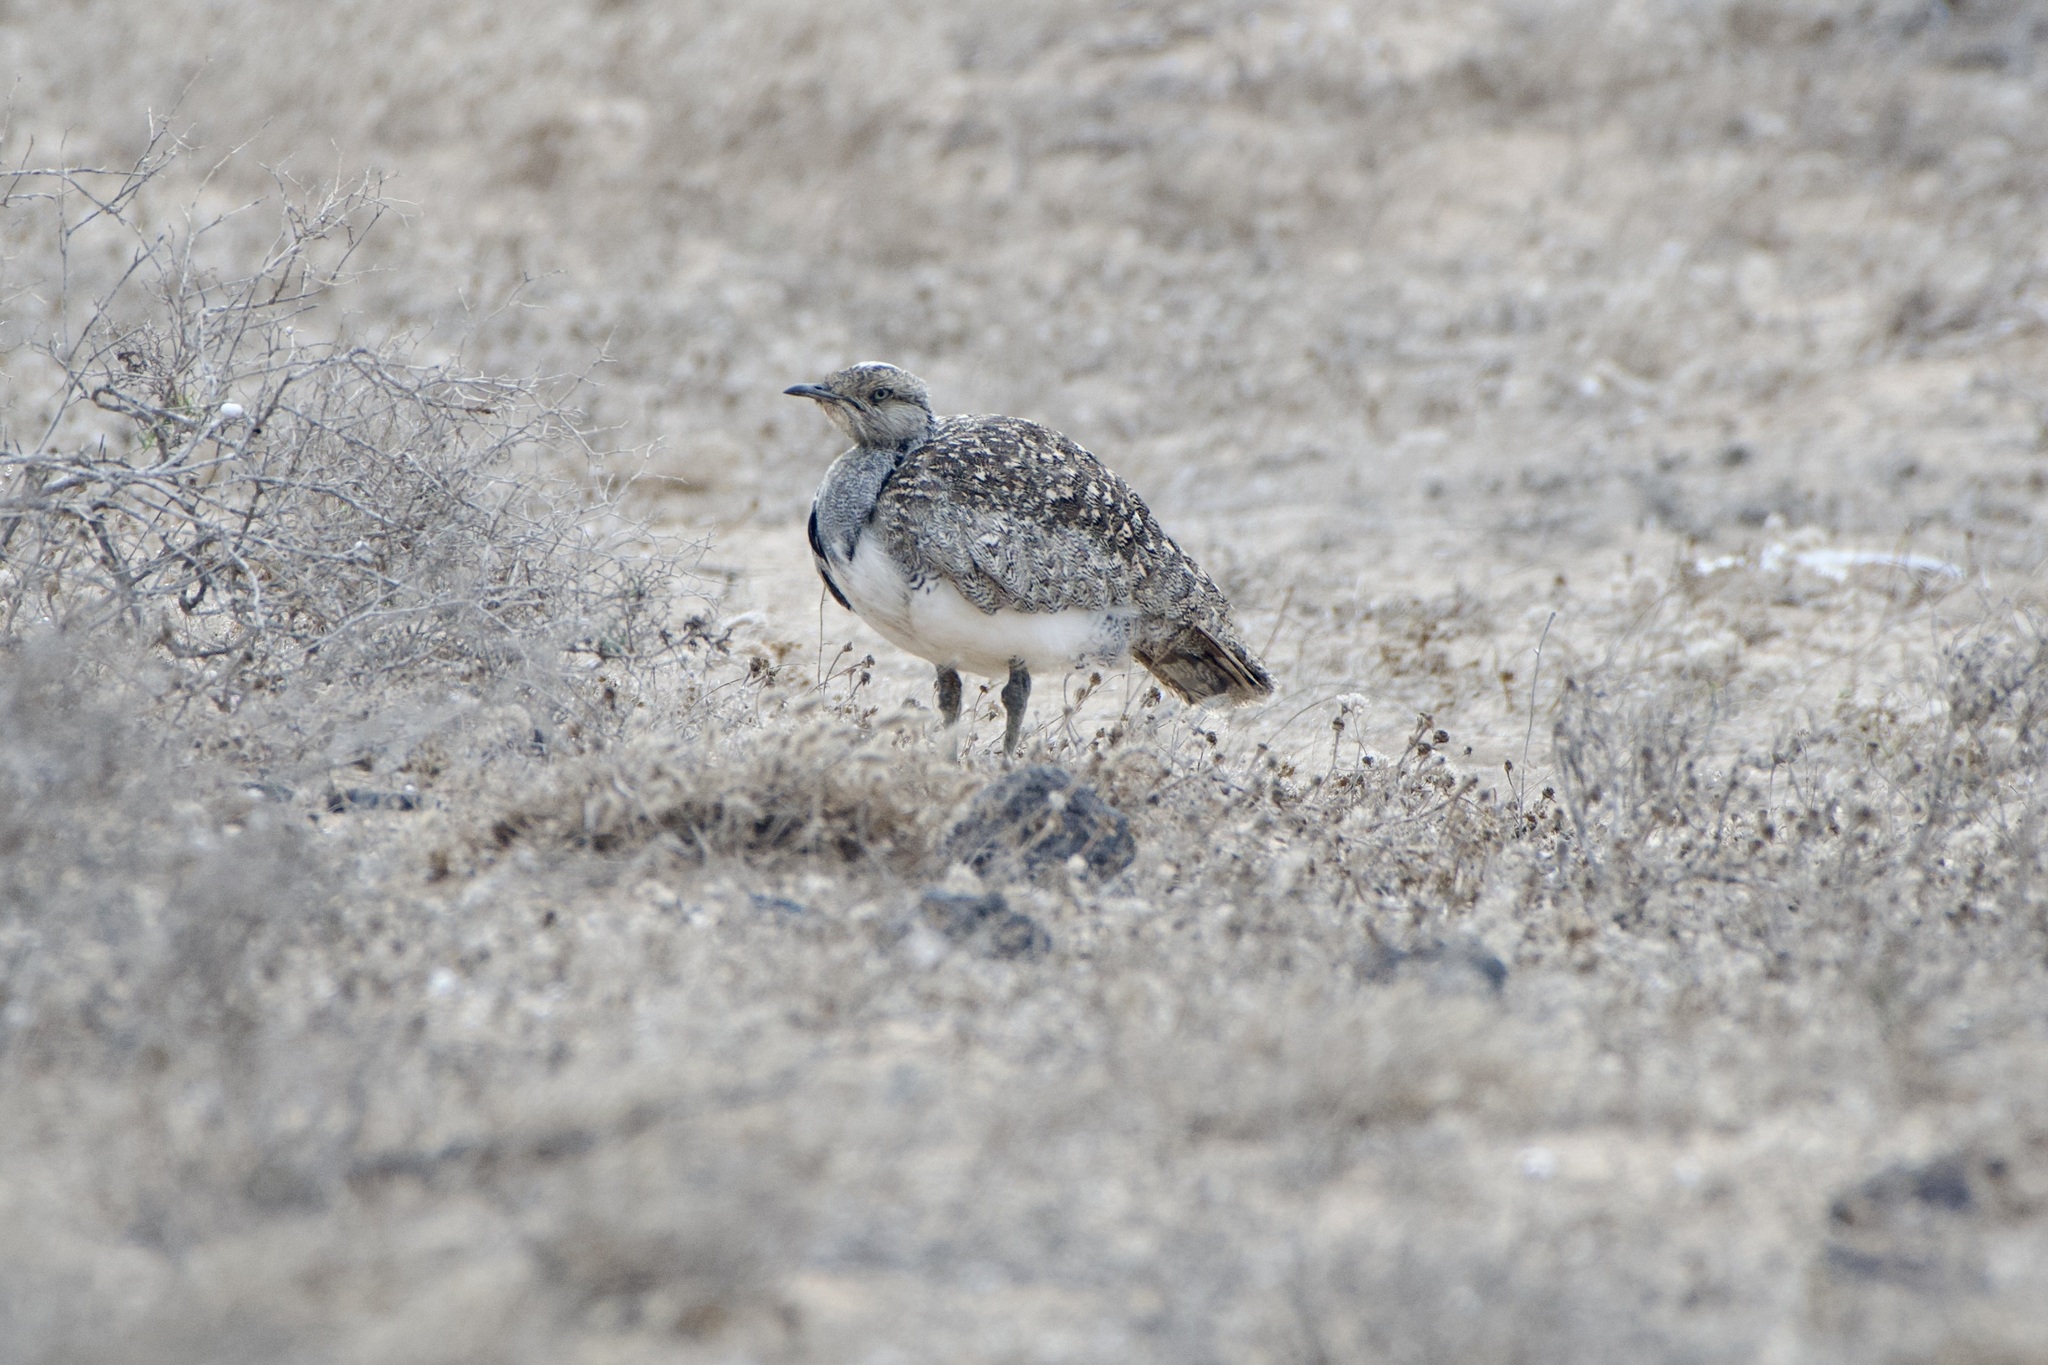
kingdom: Animalia
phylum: Chordata
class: Aves
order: Otidiformes
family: Otididae
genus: Chlamydotis
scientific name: Chlamydotis undulata
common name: Houbara bustard
